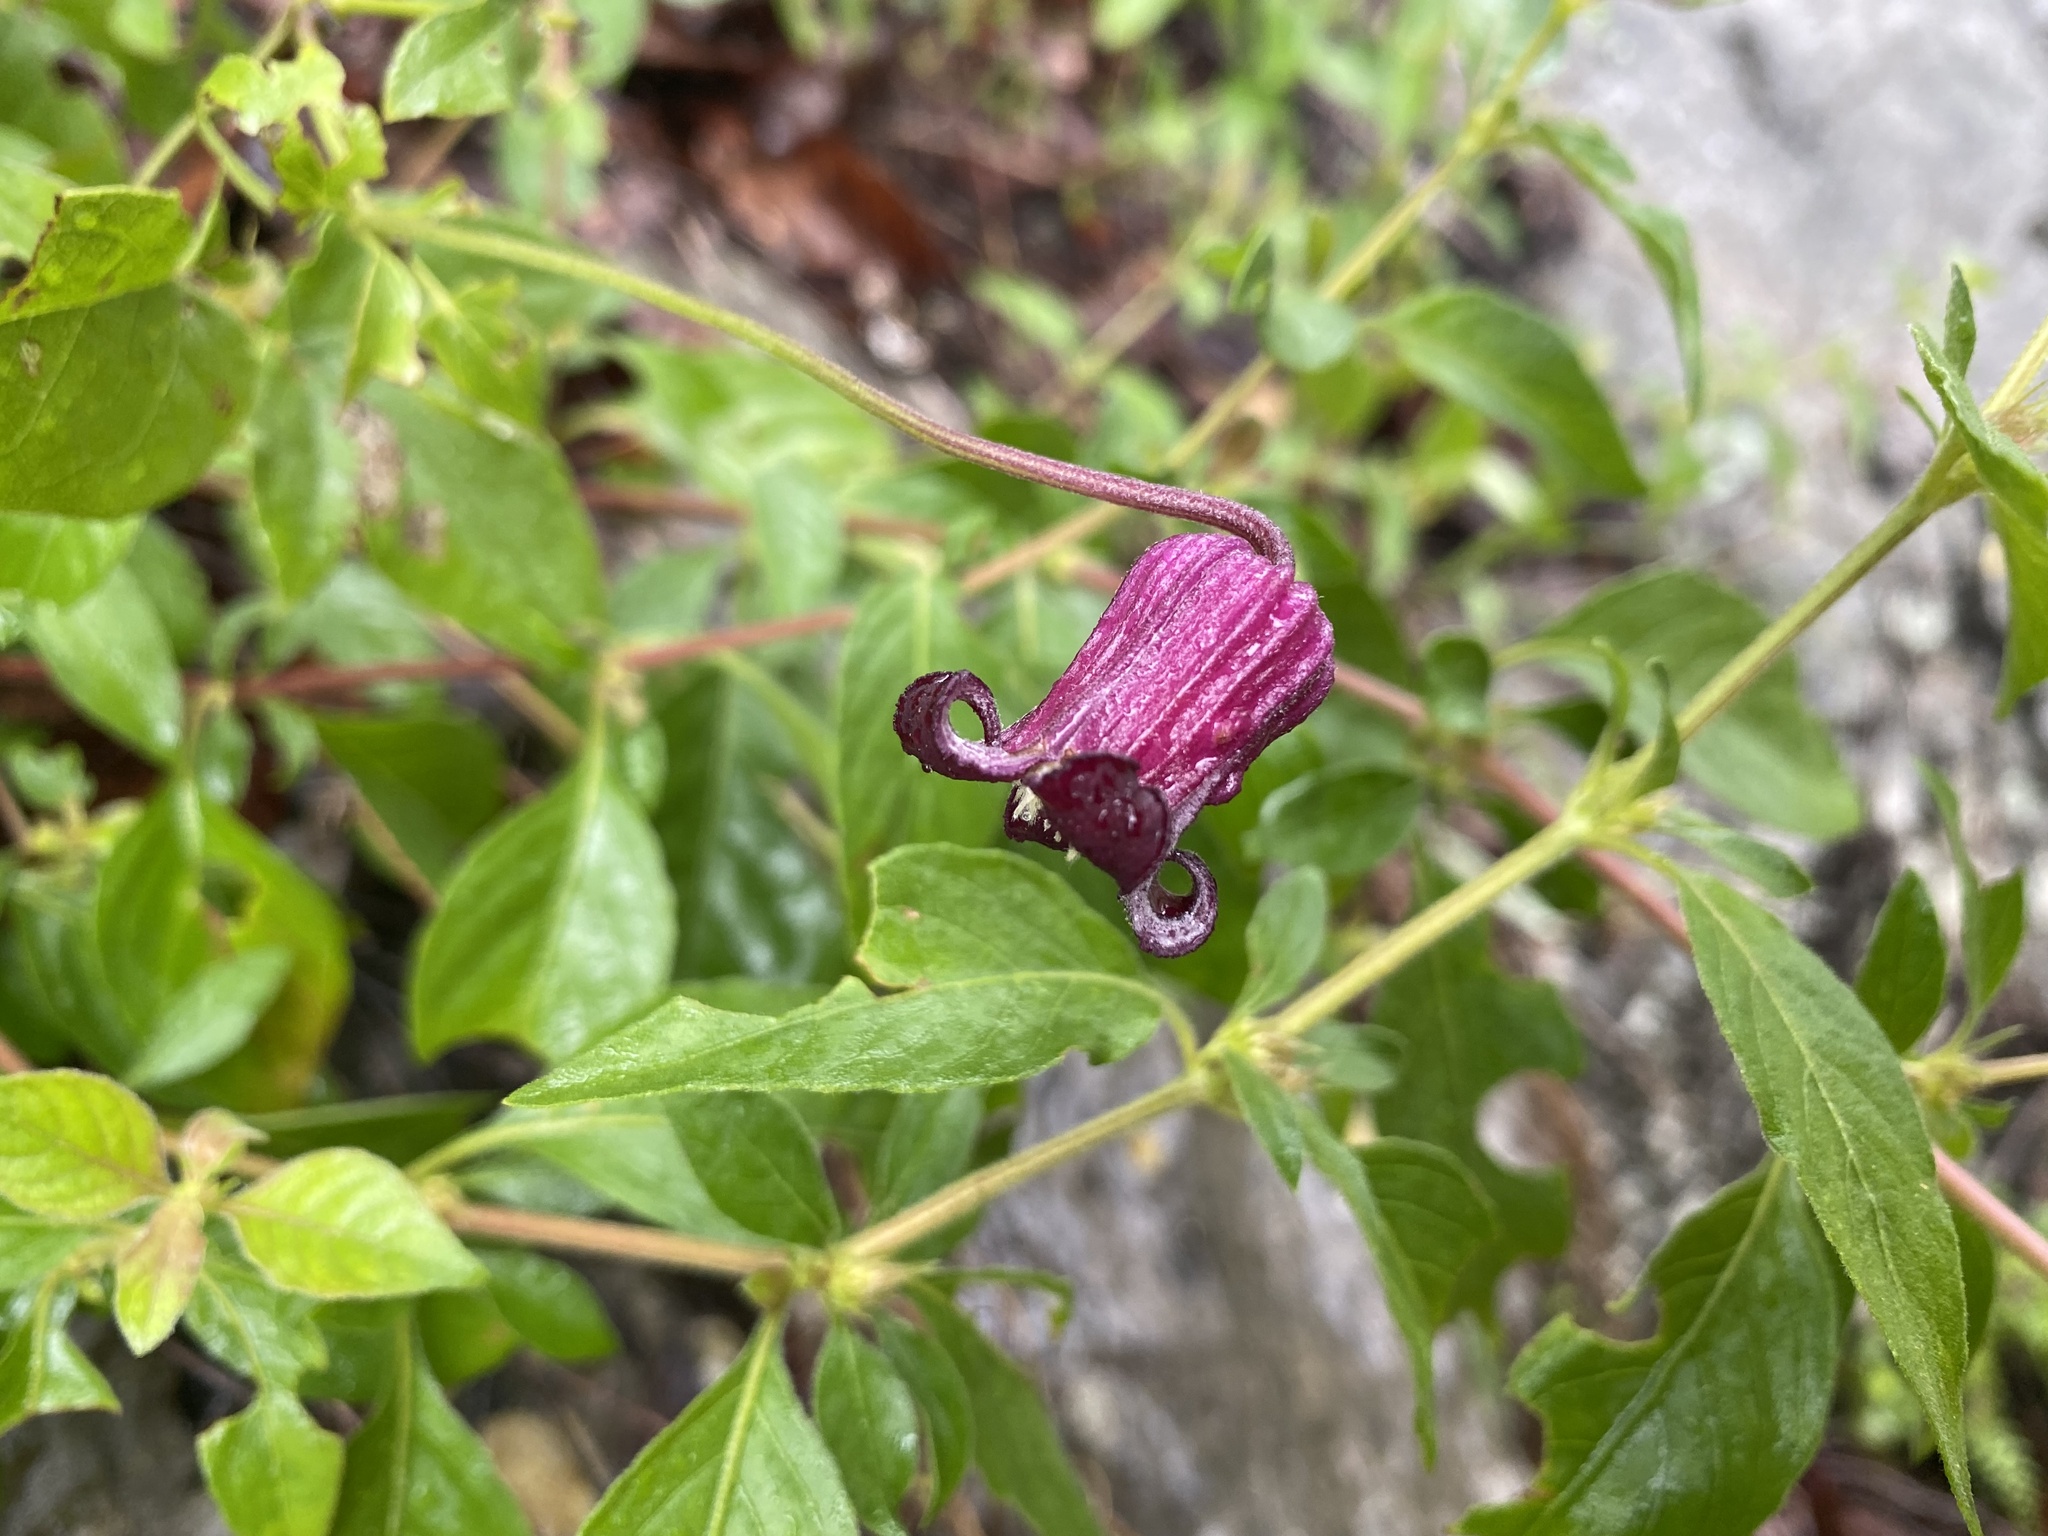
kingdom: Plantae
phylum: Tracheophyta
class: Magnoliopsida
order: Ranunculales
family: Ranunculaceae
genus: Clematis
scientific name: Clematis pitcheri
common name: Bellflower clematis
